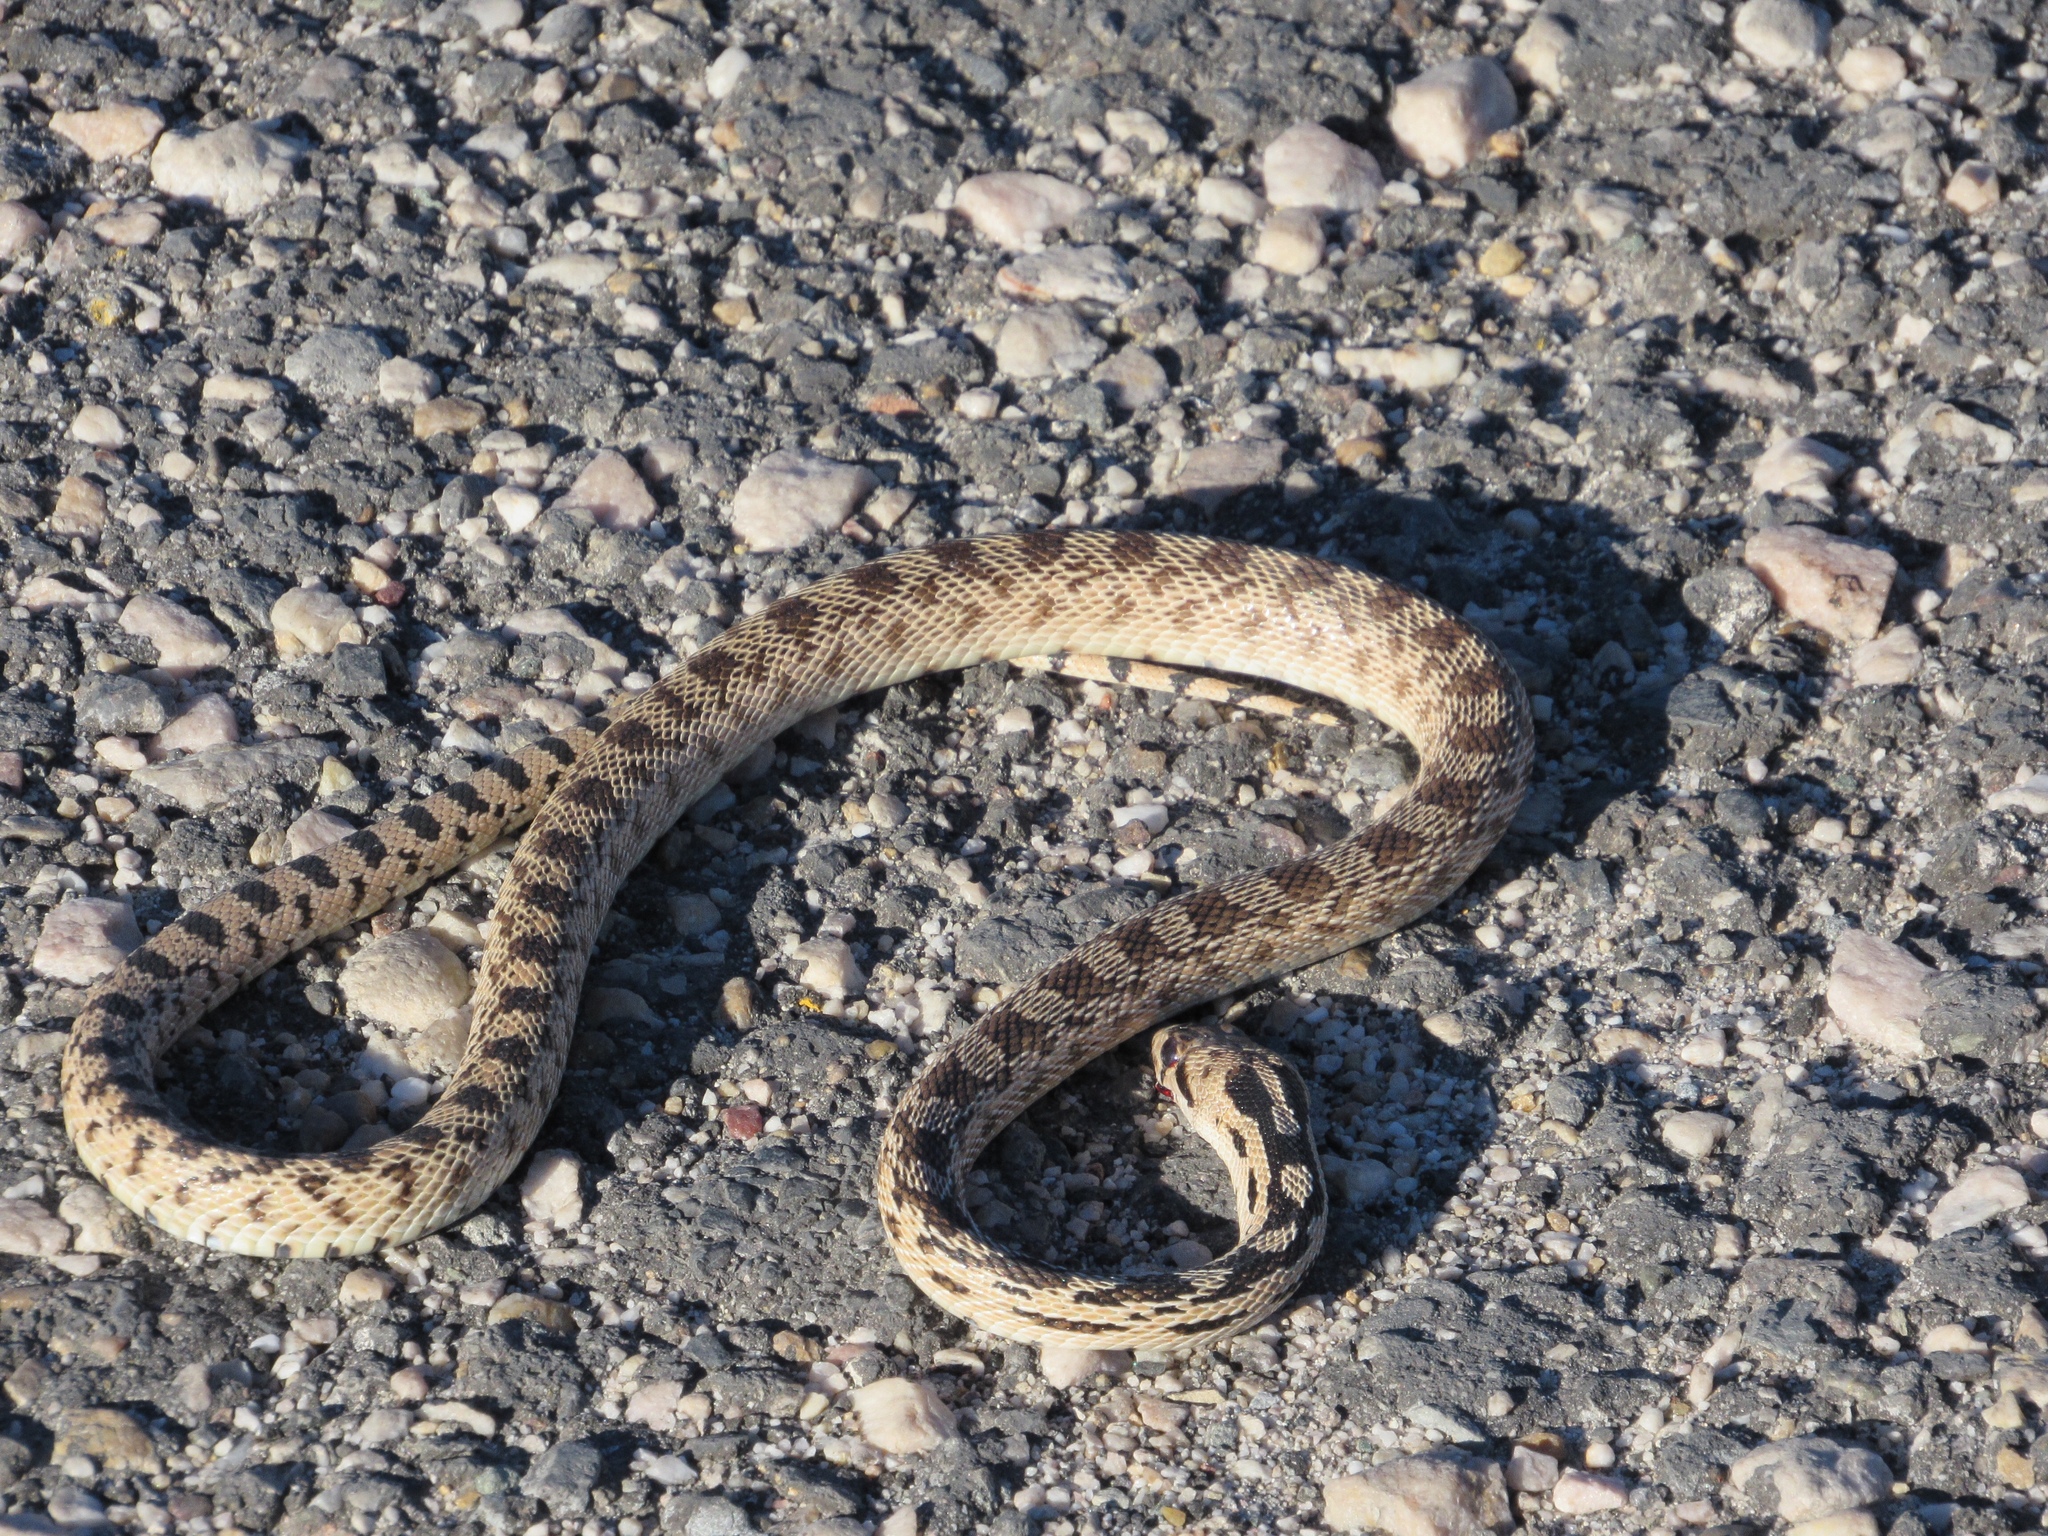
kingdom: Animalia
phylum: Chordata
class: Squamata
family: Colubridae
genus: Pituophis
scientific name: Pituophis catenifer
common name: Gopher snake
